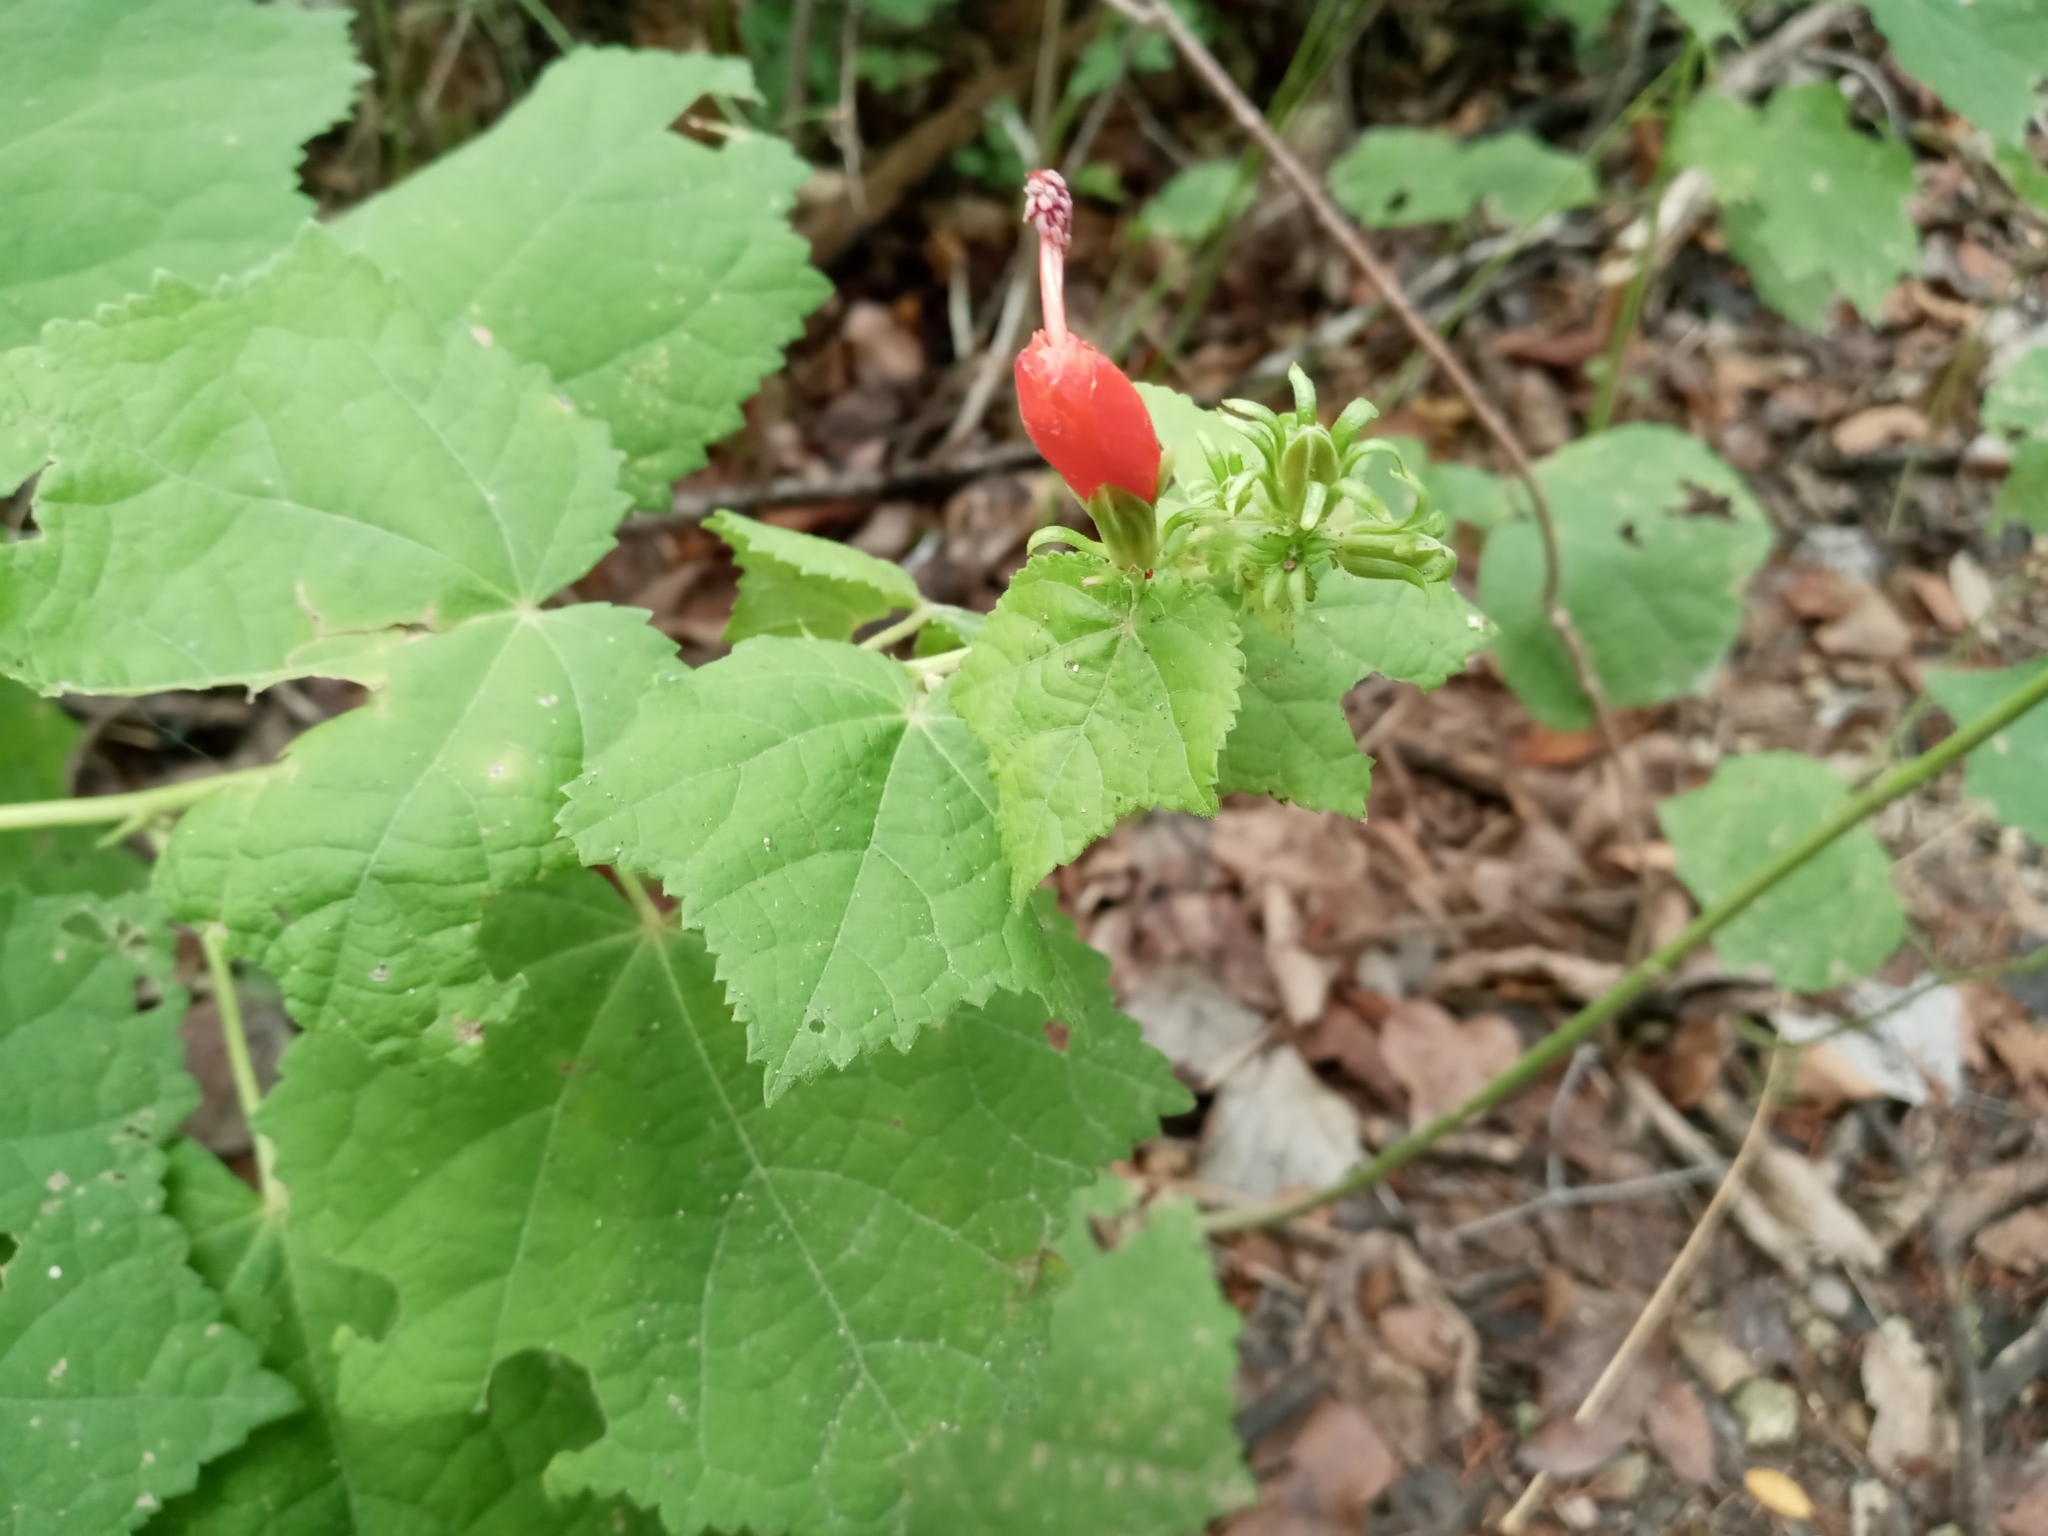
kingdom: Plantae
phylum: Tracheophyta
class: Magnoliopsida
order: Malvales
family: Malvaceae
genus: Malvaviscus
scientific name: Malvaviscus arboreus
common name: Wax mallow
